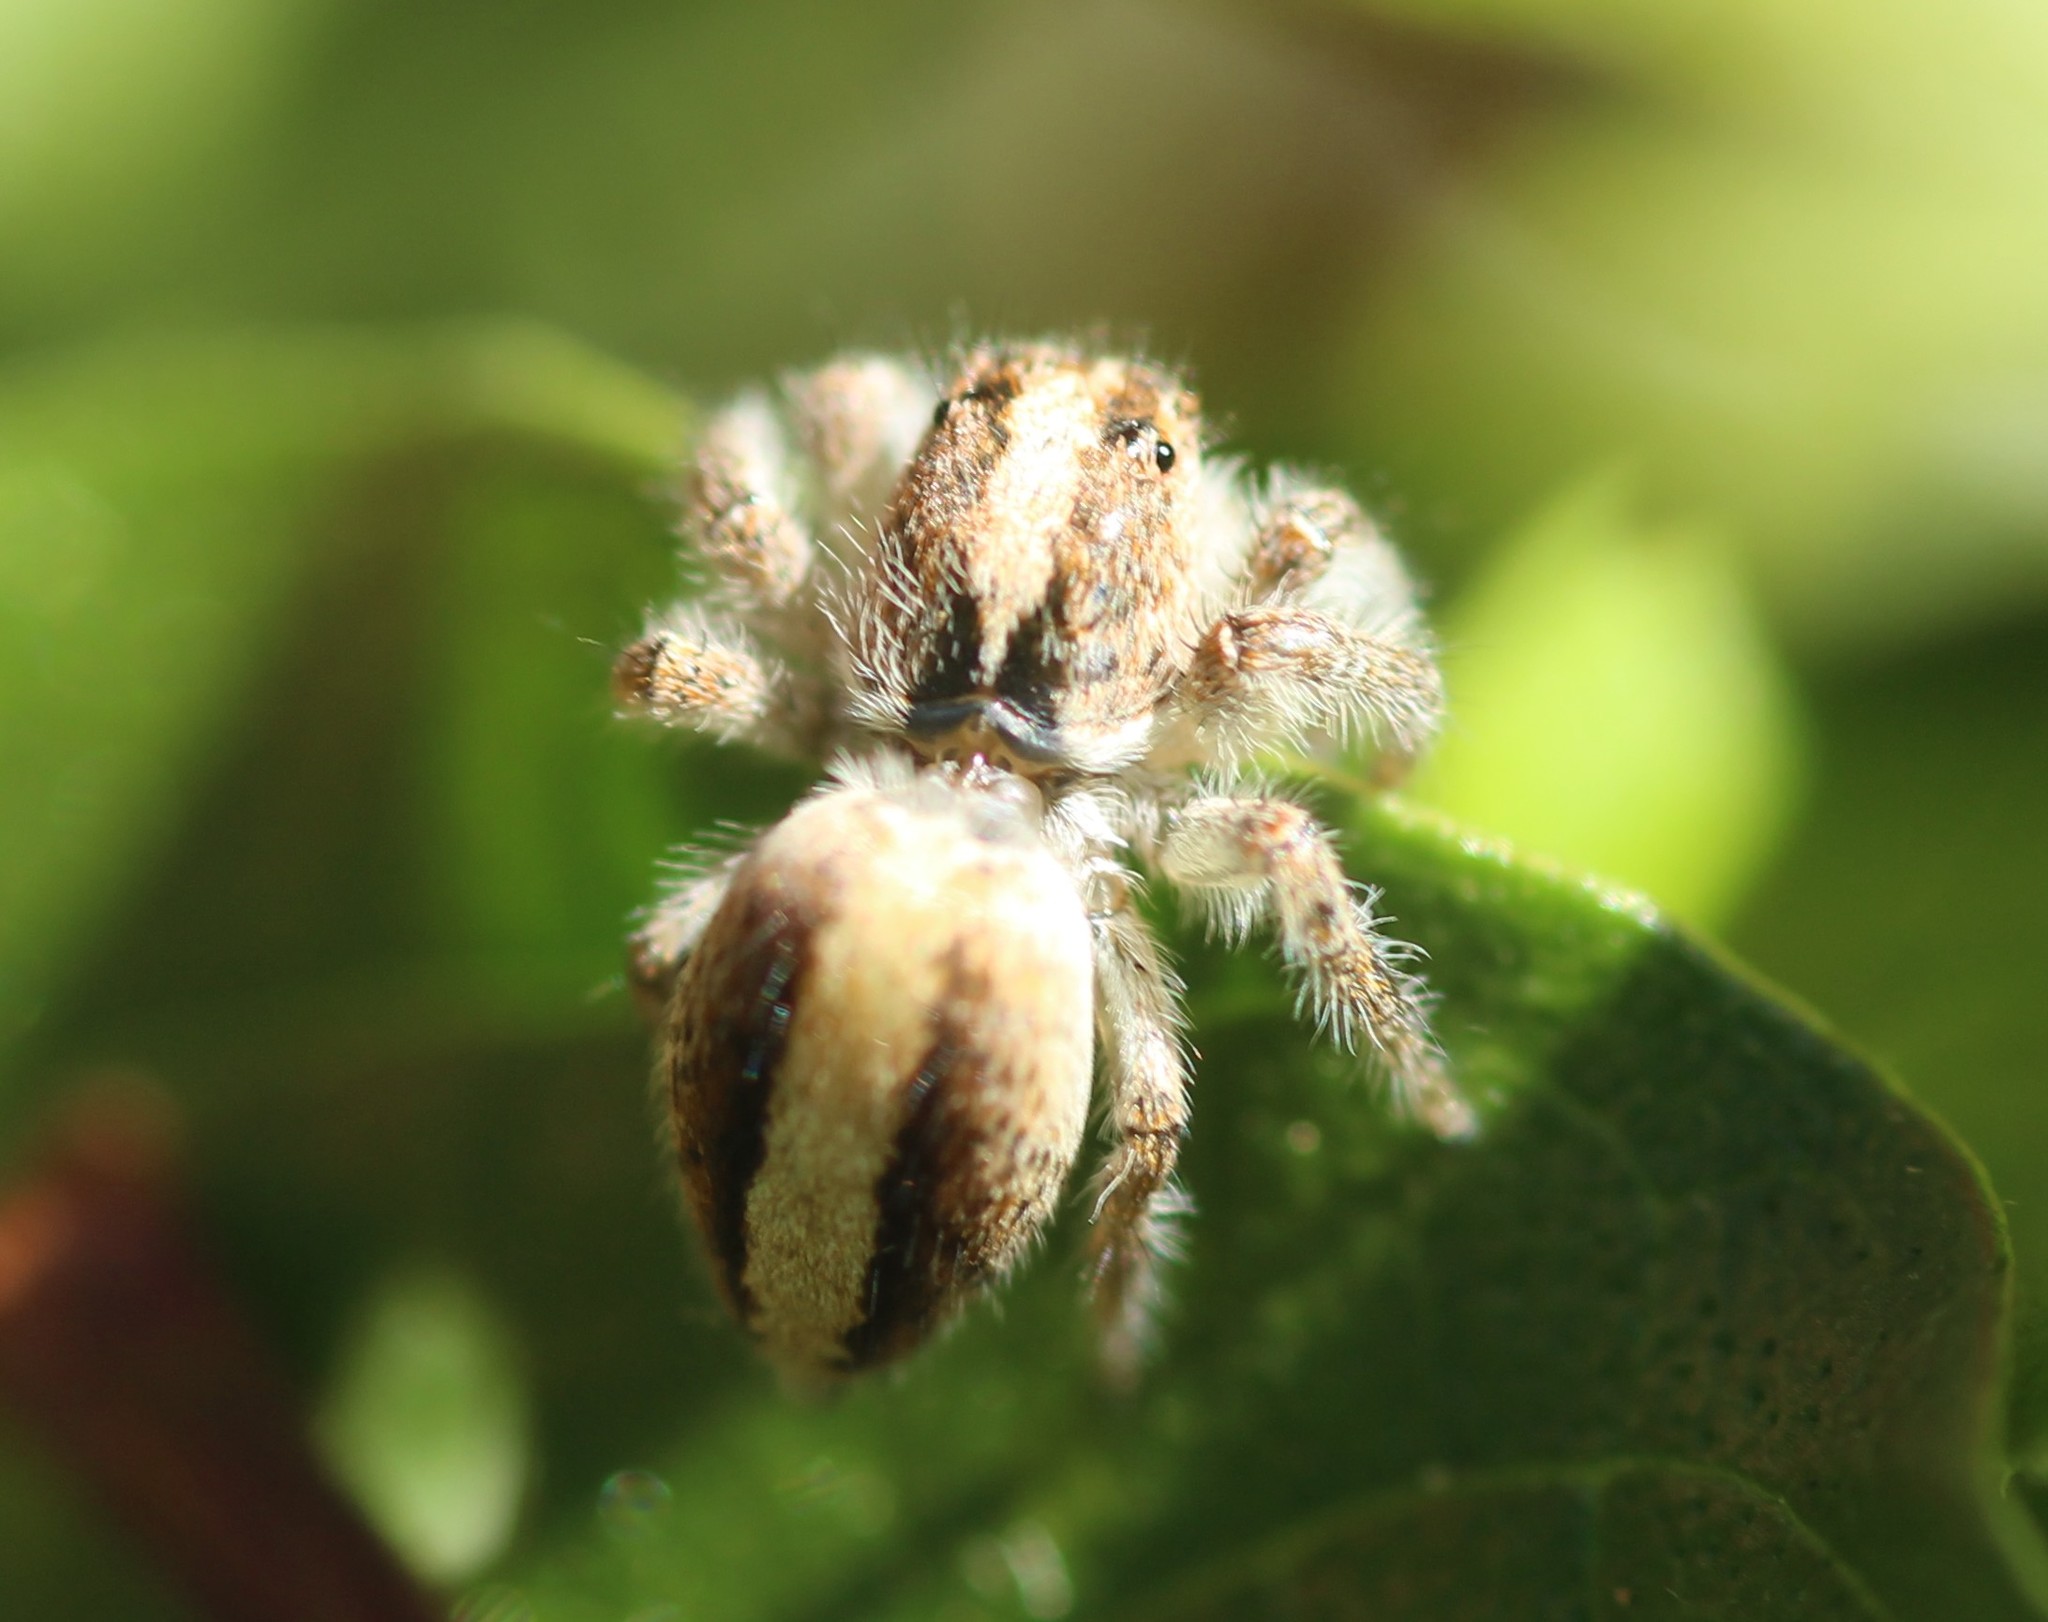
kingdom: Animalia
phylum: Arthropoda
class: Arachnida
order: Araneae
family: Salticidae
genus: Megafreya
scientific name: Megafreya sutrix
